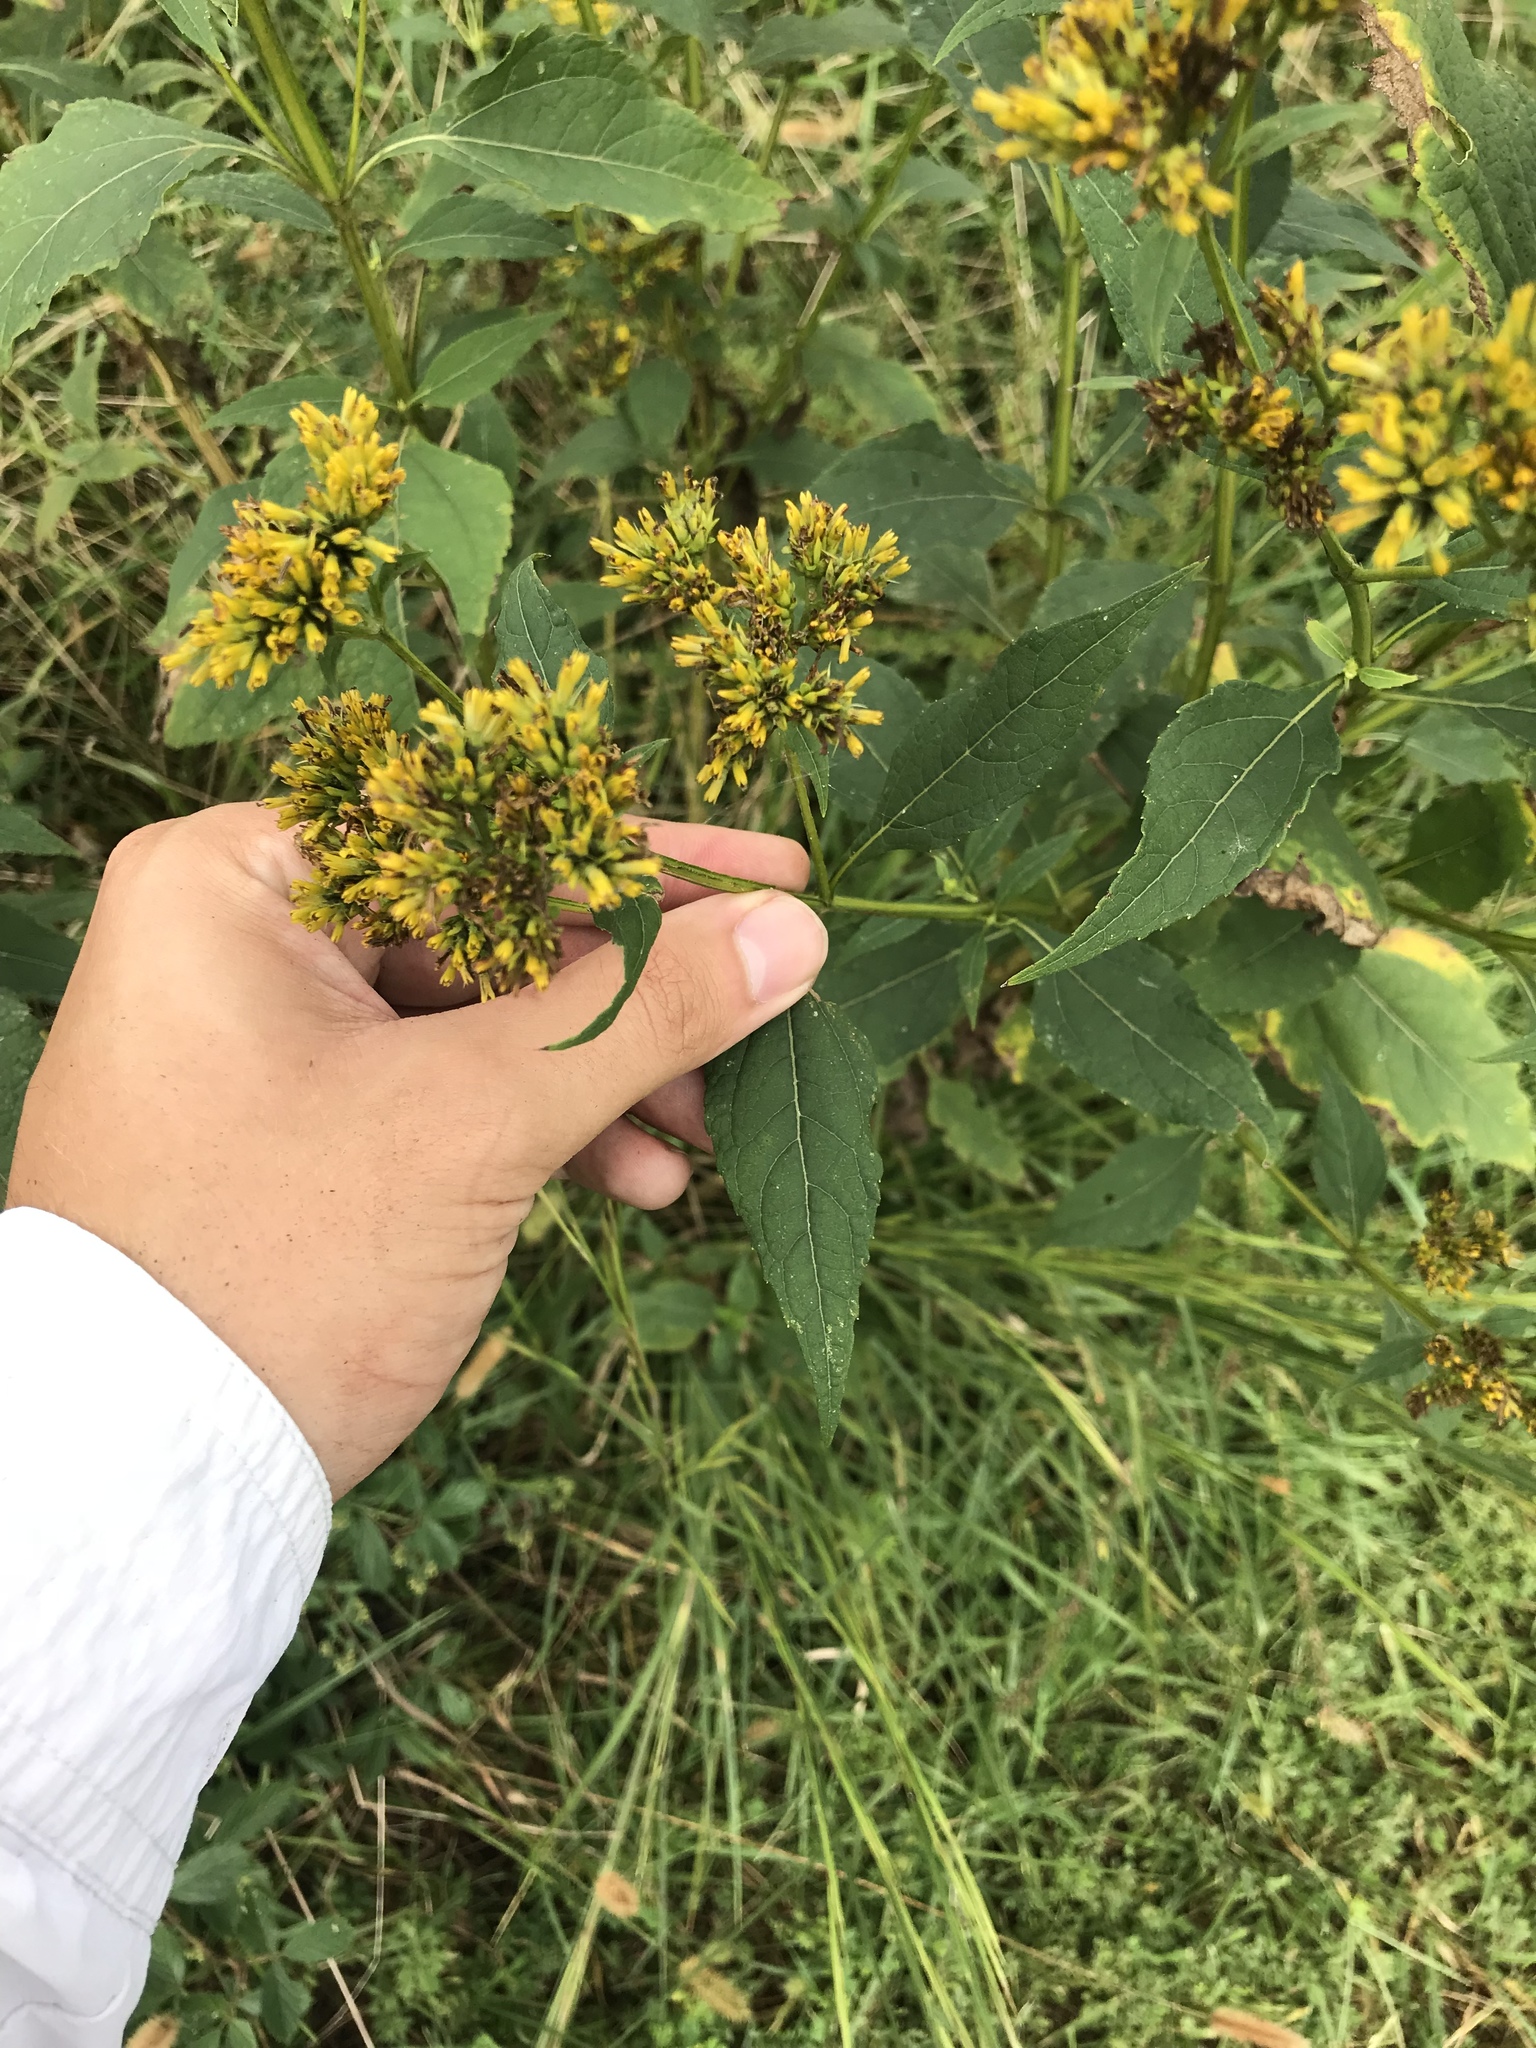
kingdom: Plantae
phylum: Tracheophyta
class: Magnoliopsida
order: Asterales
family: Asteraceae
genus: Verbesina
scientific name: Verbesina occidentalis
